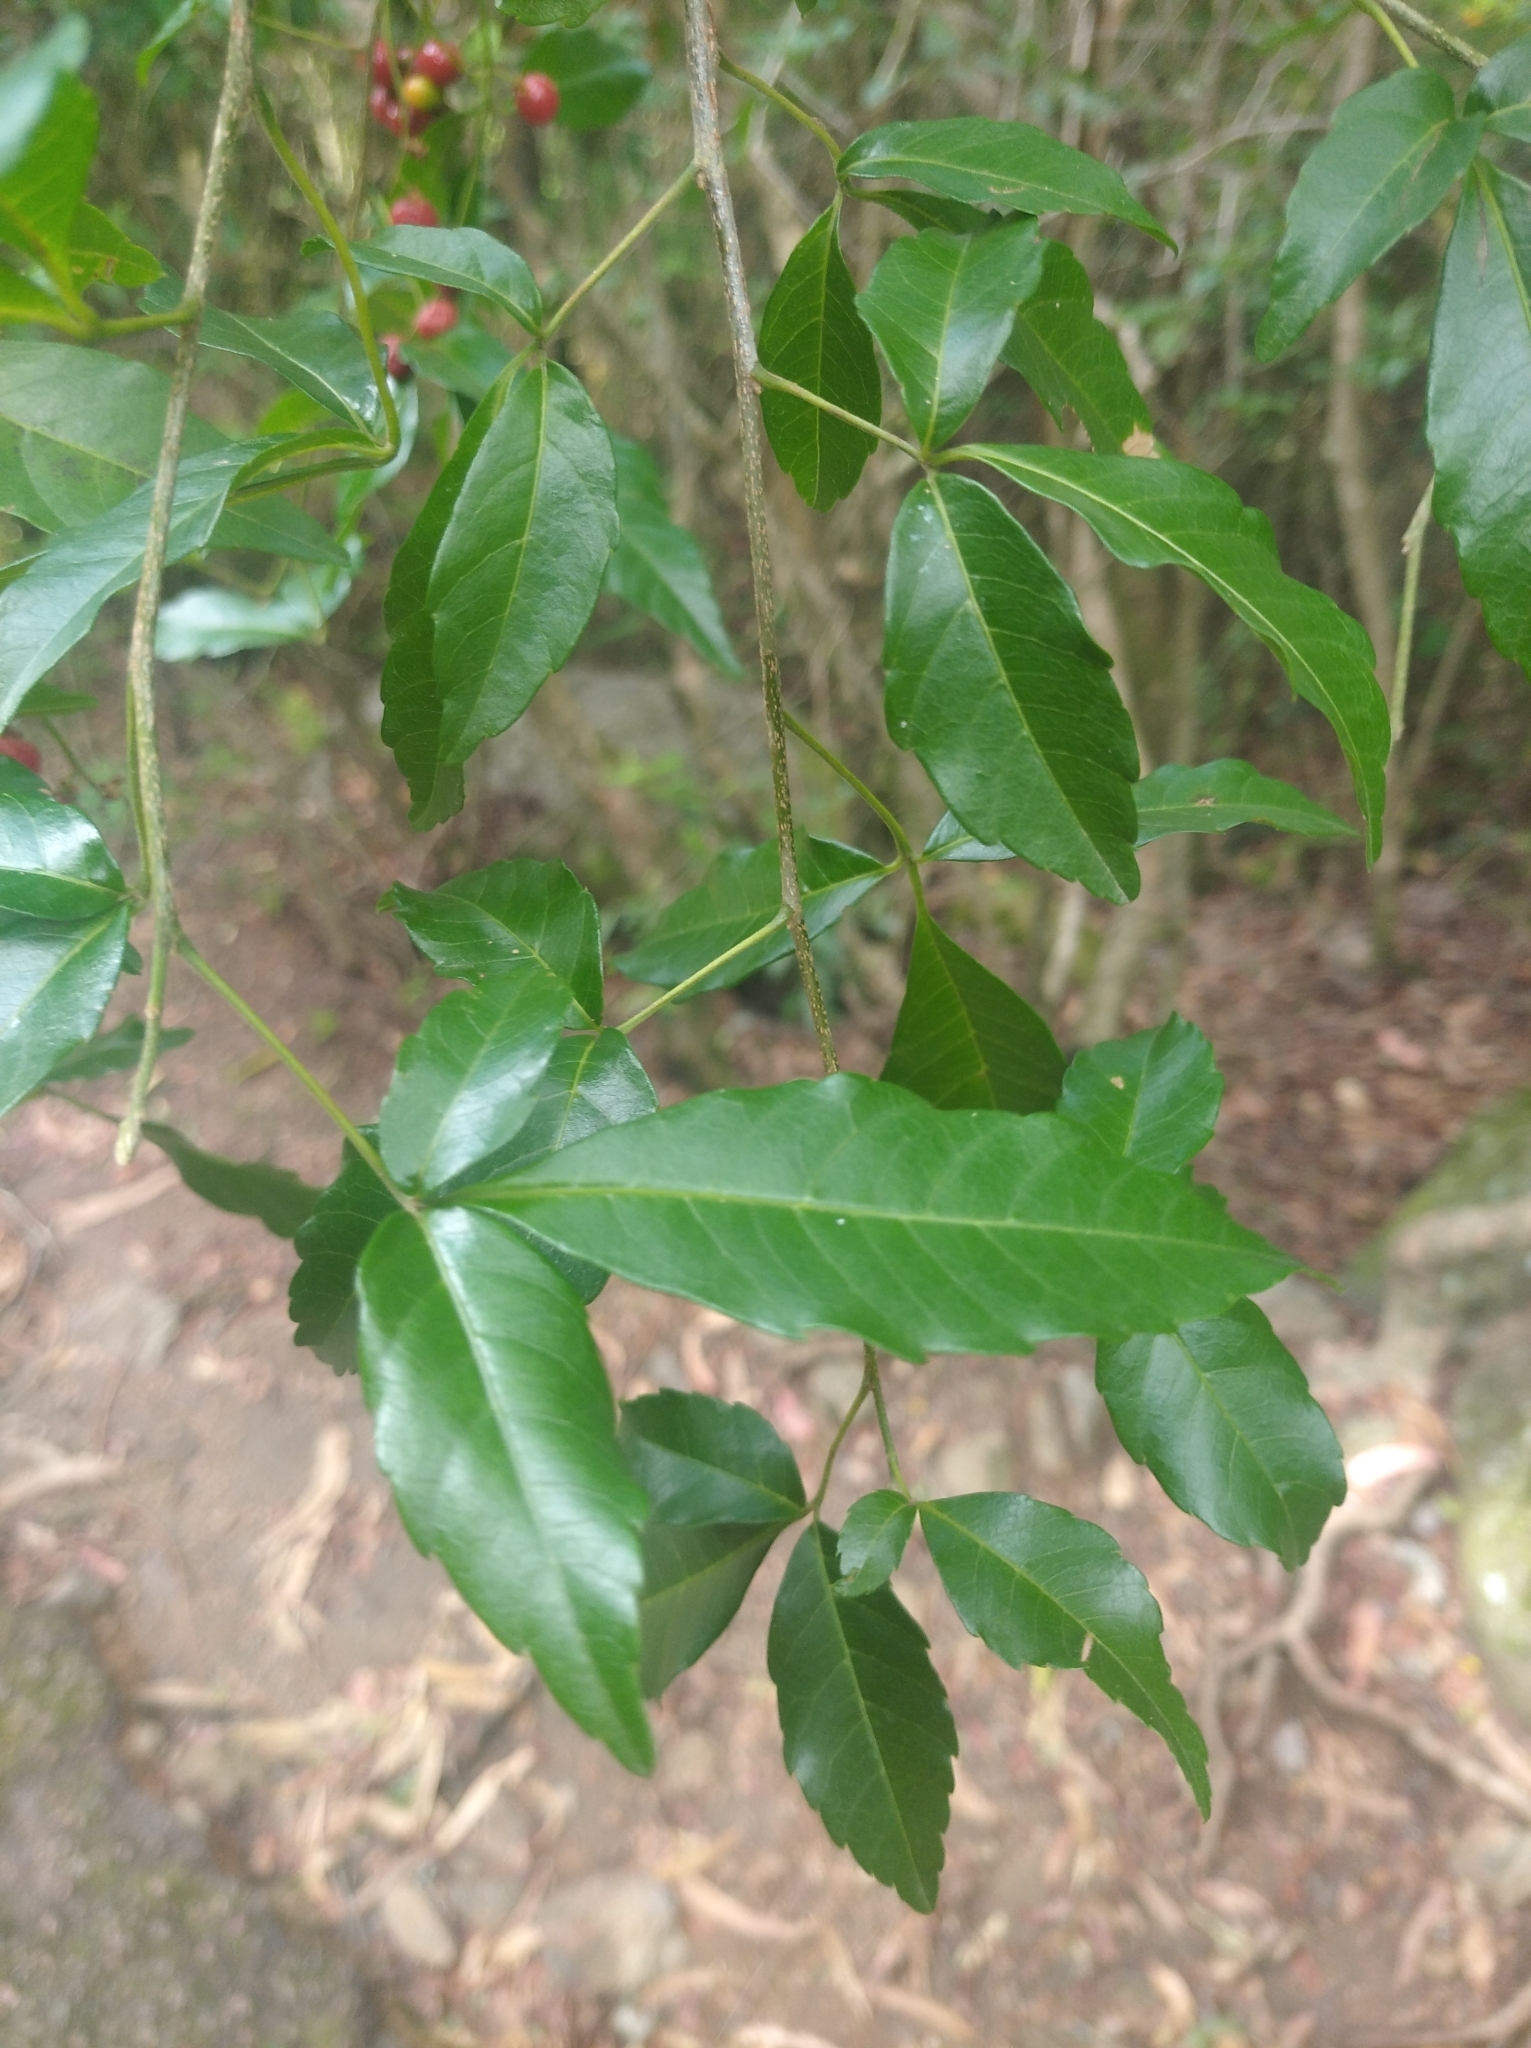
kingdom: Plantae
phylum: Tracheophyta
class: Magnoliopsida
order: Sapindales
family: Sapindaceae
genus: Allophylus
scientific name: Allophylus edulis
